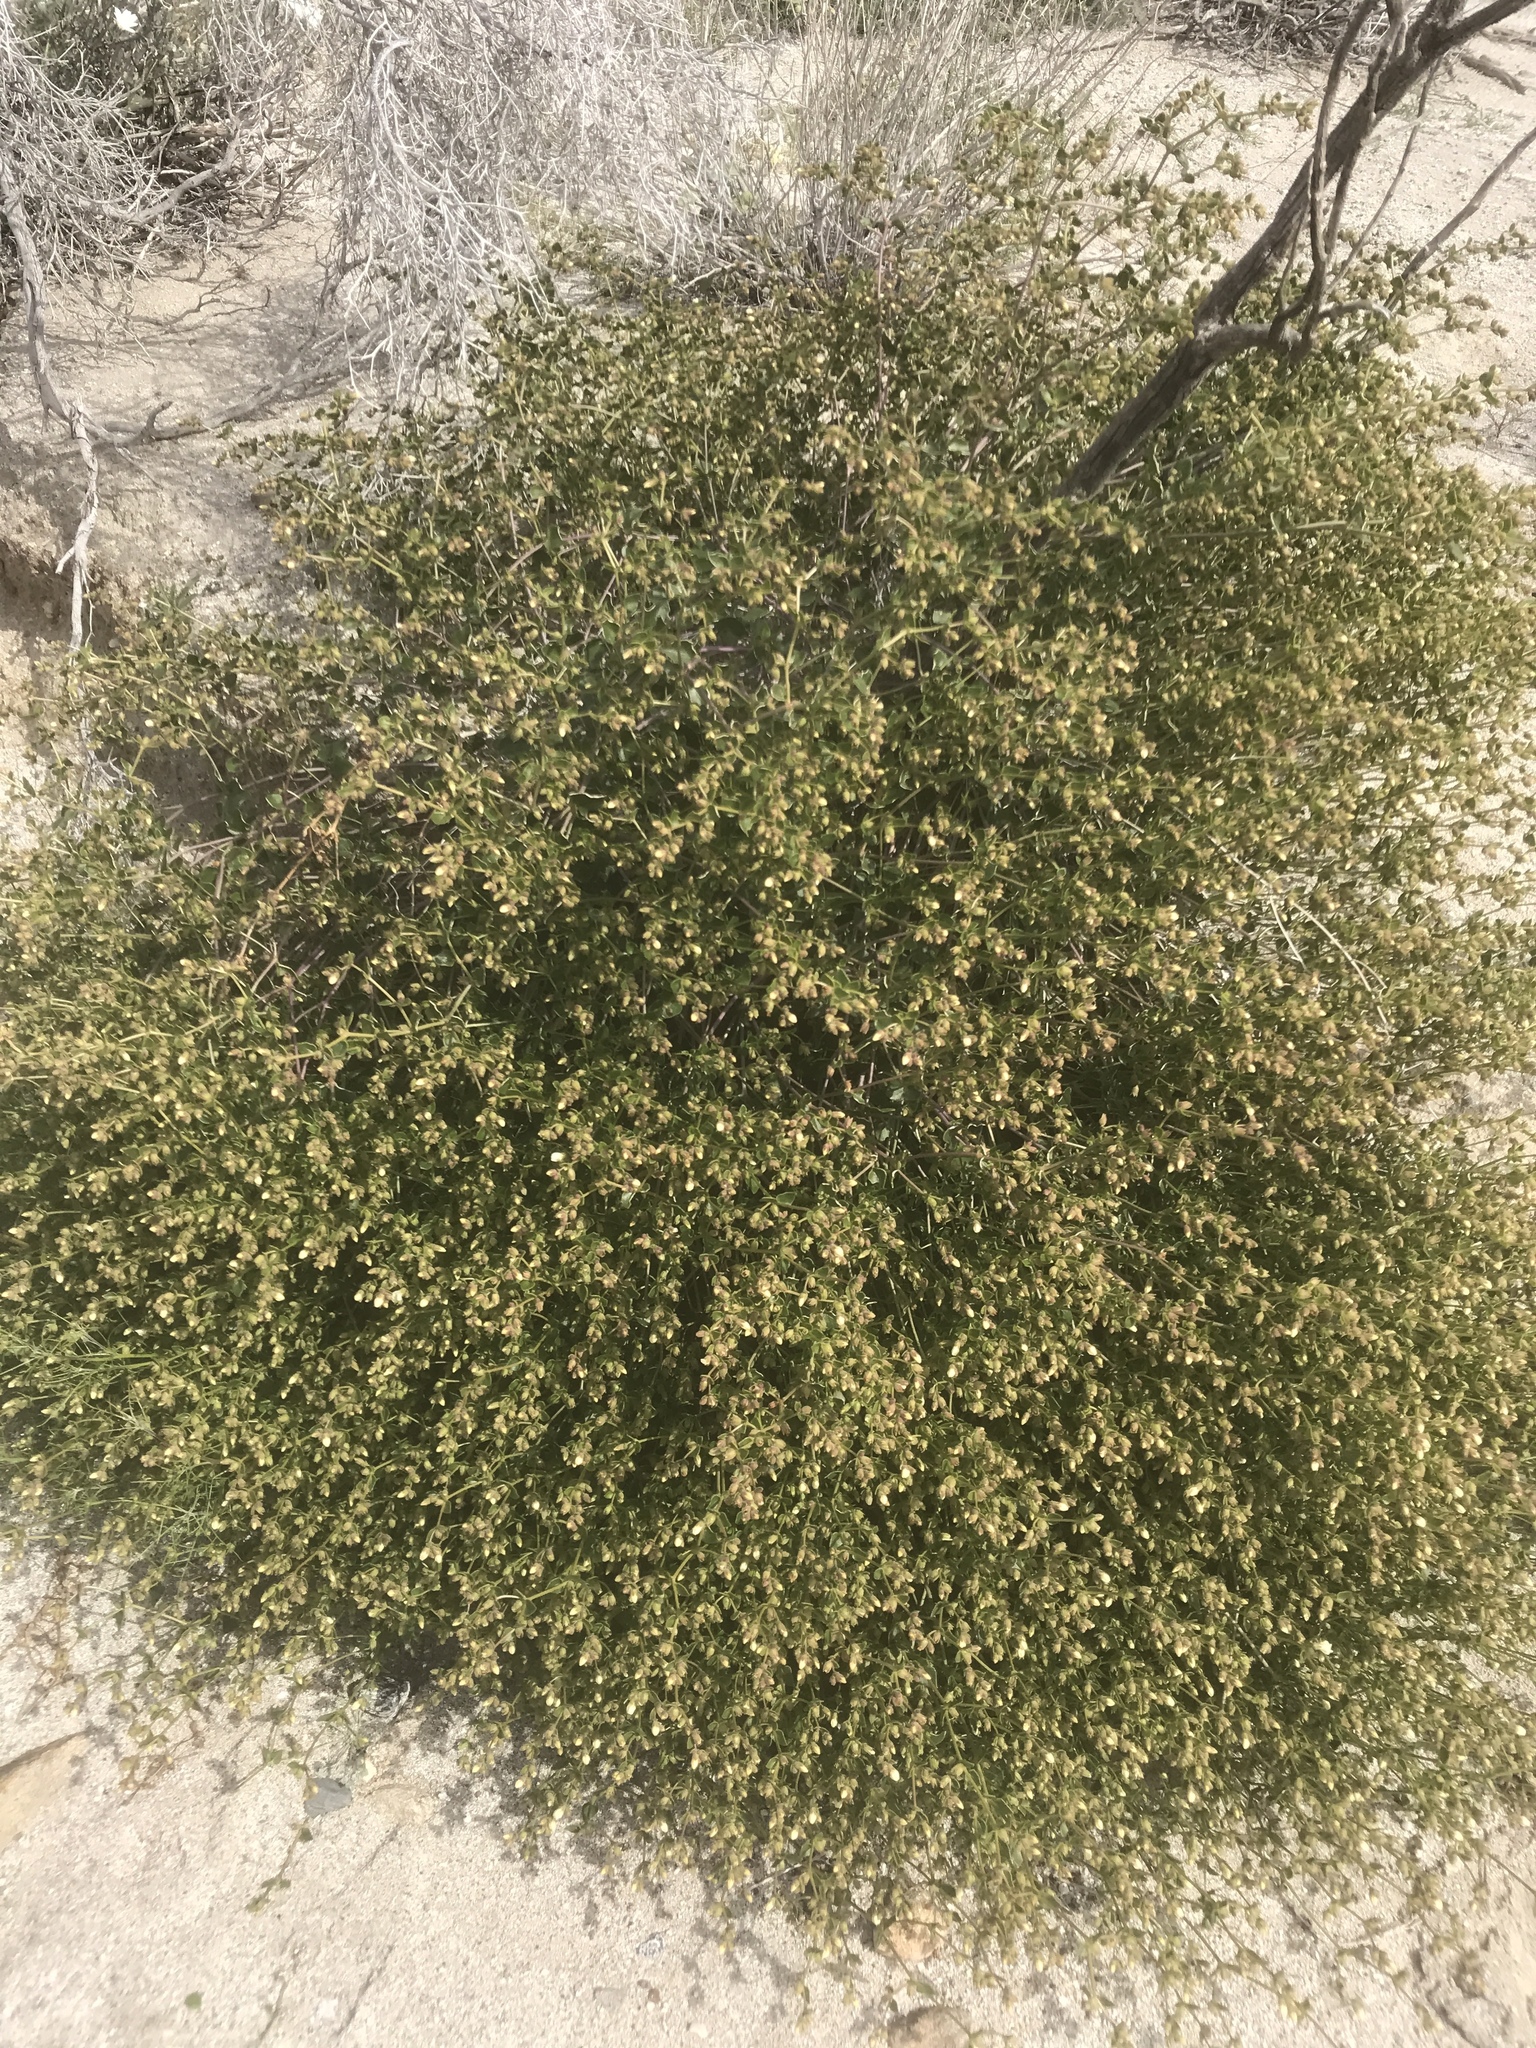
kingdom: Plantae
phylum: Tracheophyta
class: Magnoliopsida
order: Caryophyllales
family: Nyctaginaceae
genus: Mirabilis
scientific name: Mirabilis laevis
